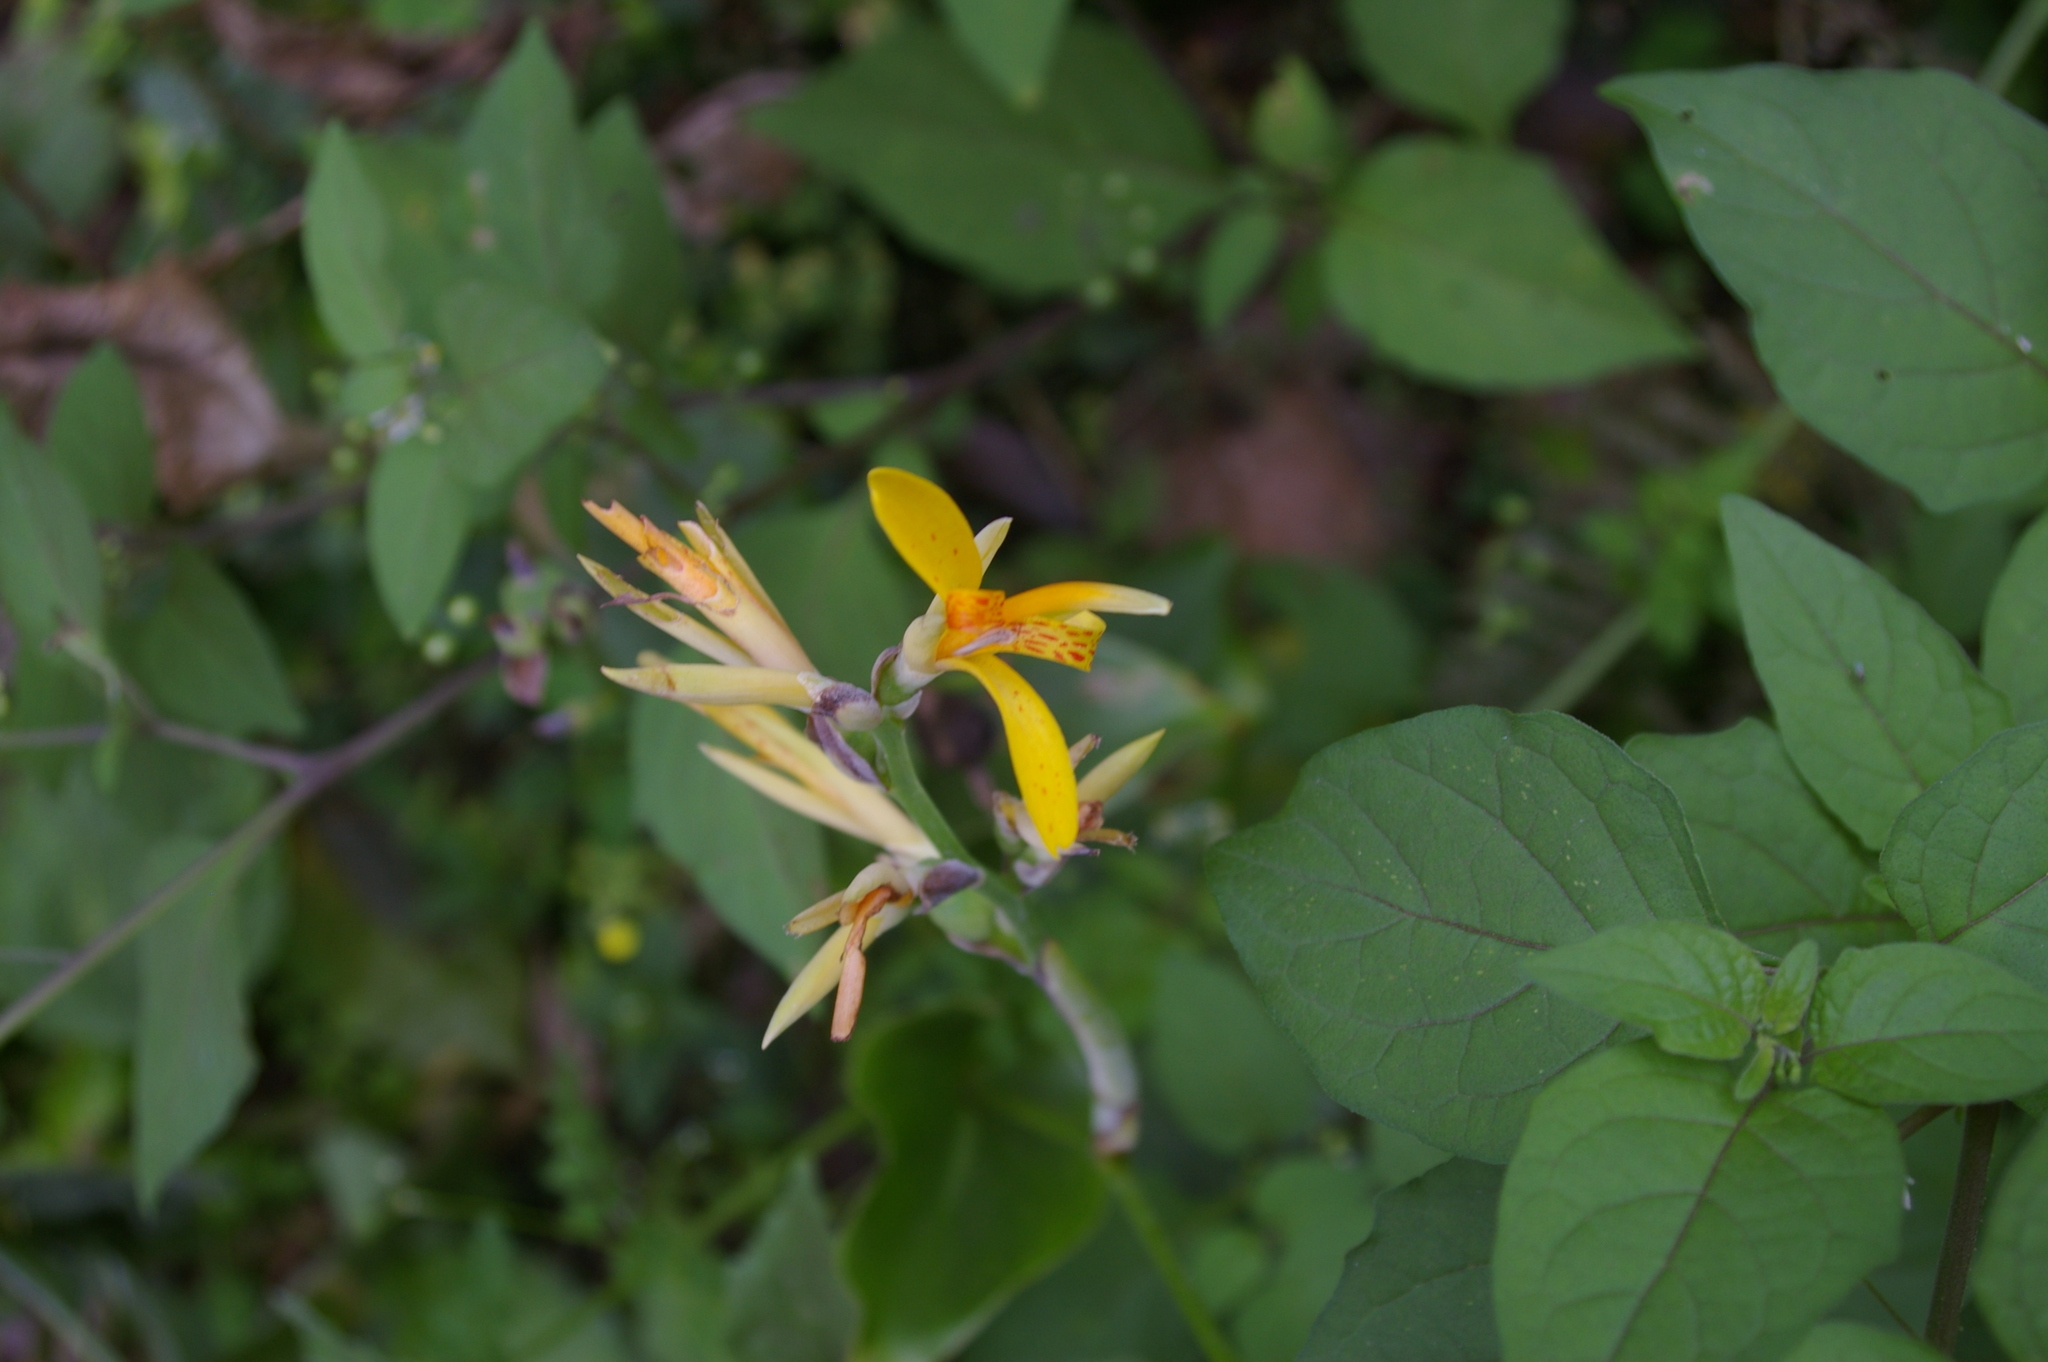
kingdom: Plantae
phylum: Tracheophyta
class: Liliopsida
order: Zingiberales
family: Cannaceae
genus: Canna
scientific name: Canna indica
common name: Indian shot
